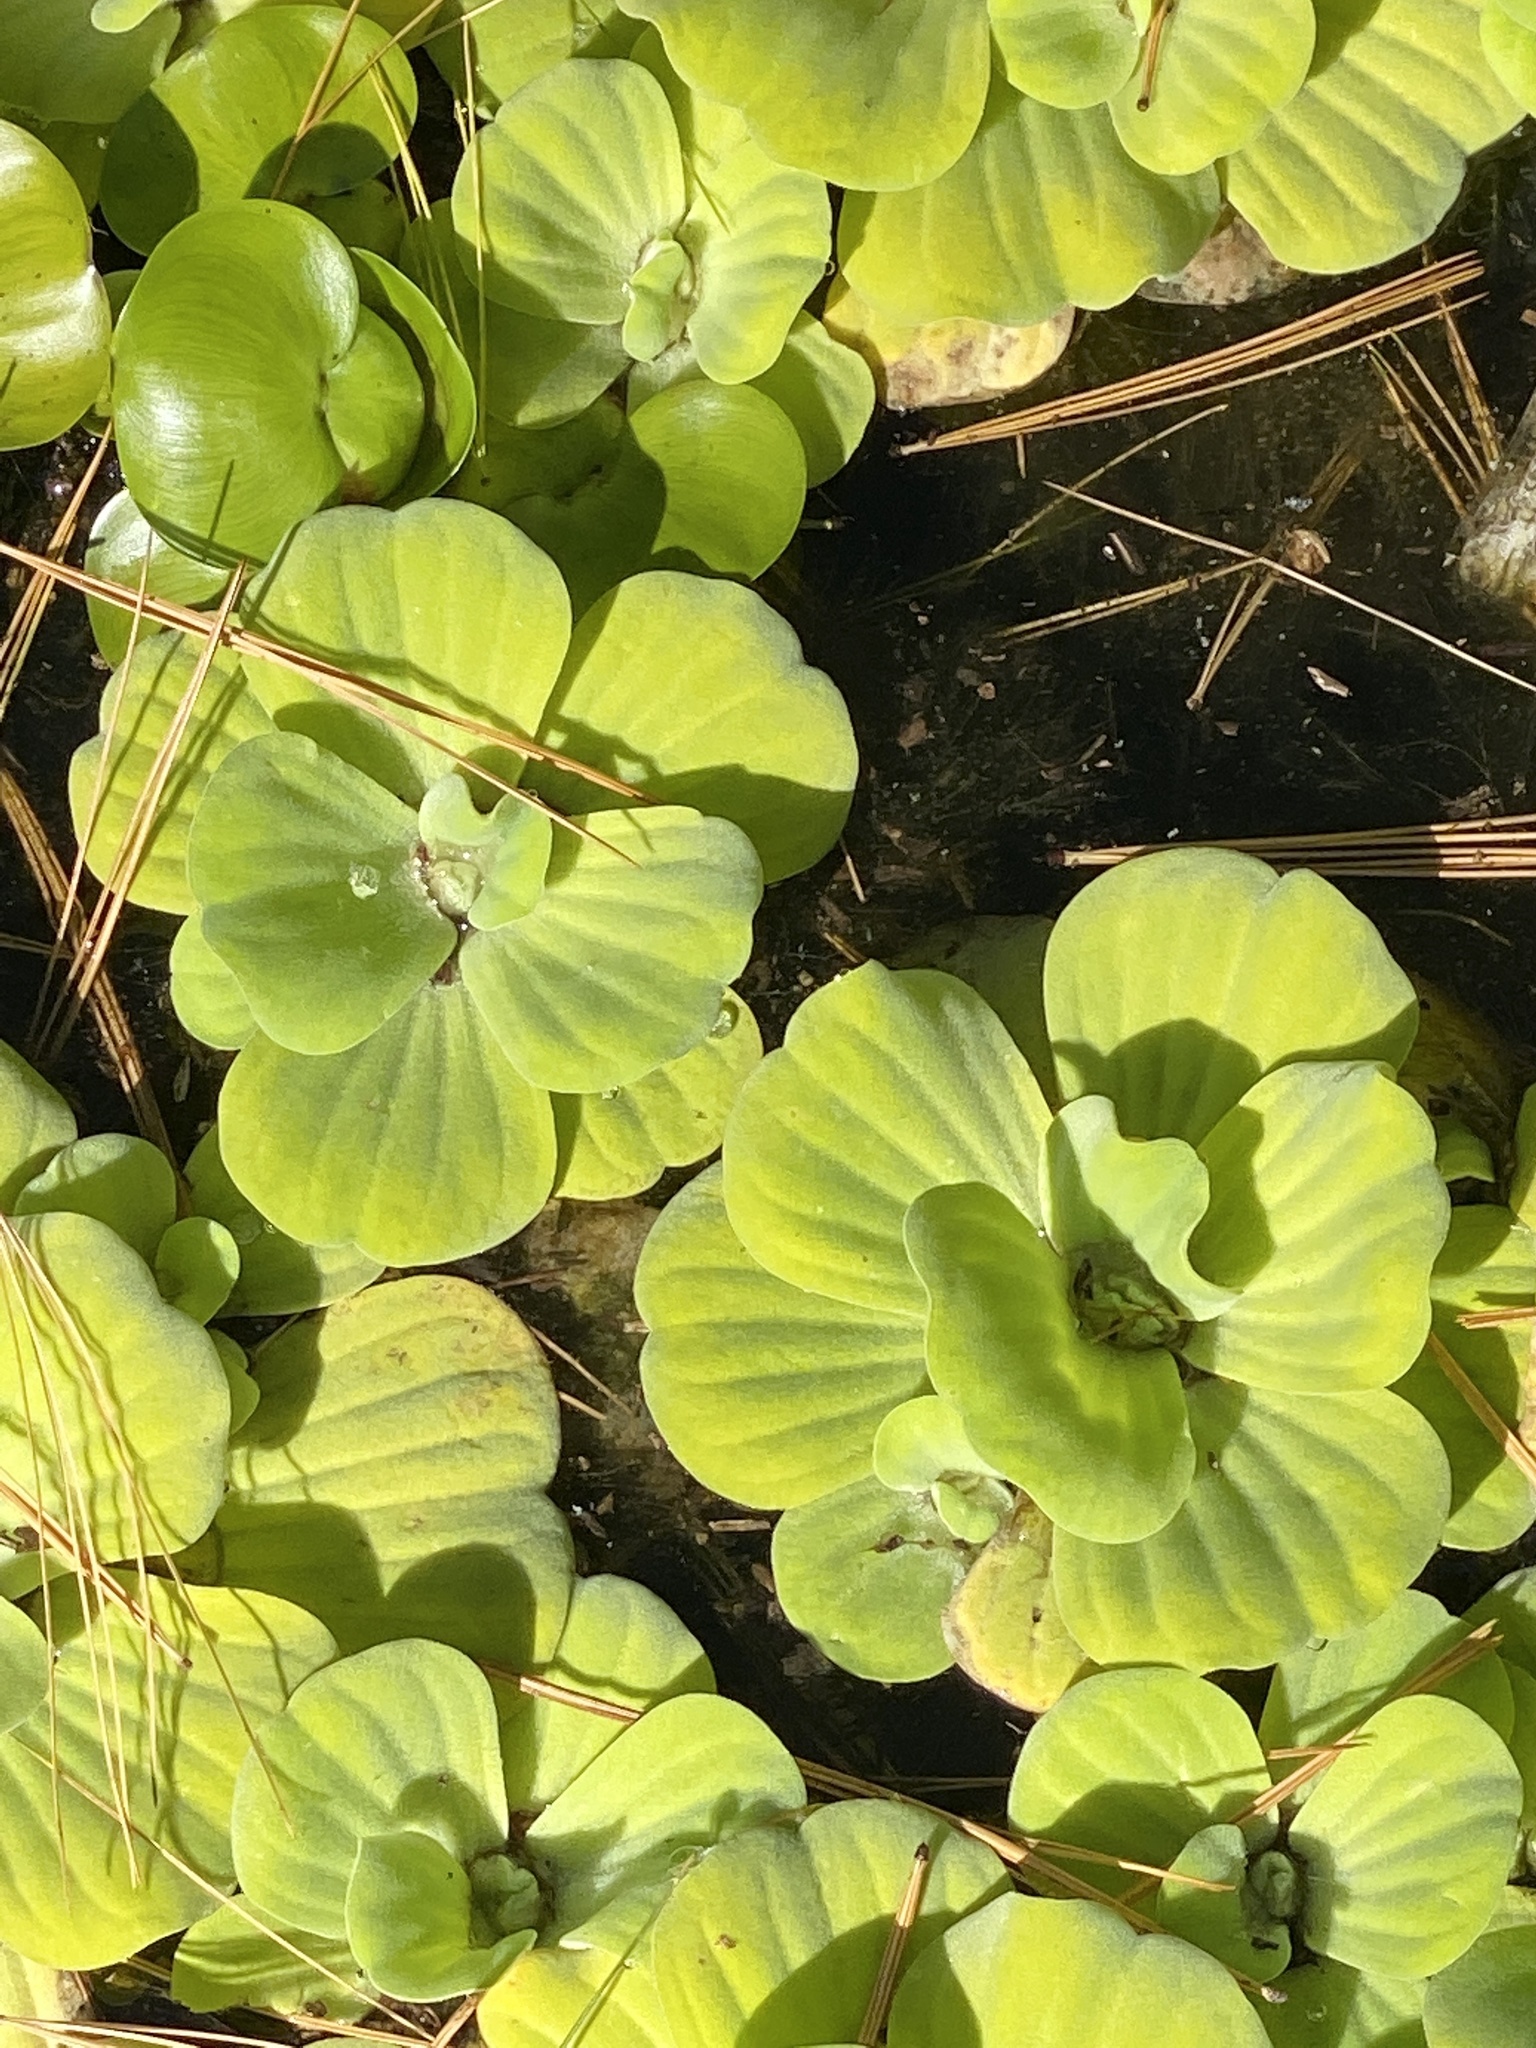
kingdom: Plantae
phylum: Tracheophyta
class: Liliopsida
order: Alismatales
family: Araceae
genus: Pistia
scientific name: Pistia stratiotes
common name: Water lettuce
